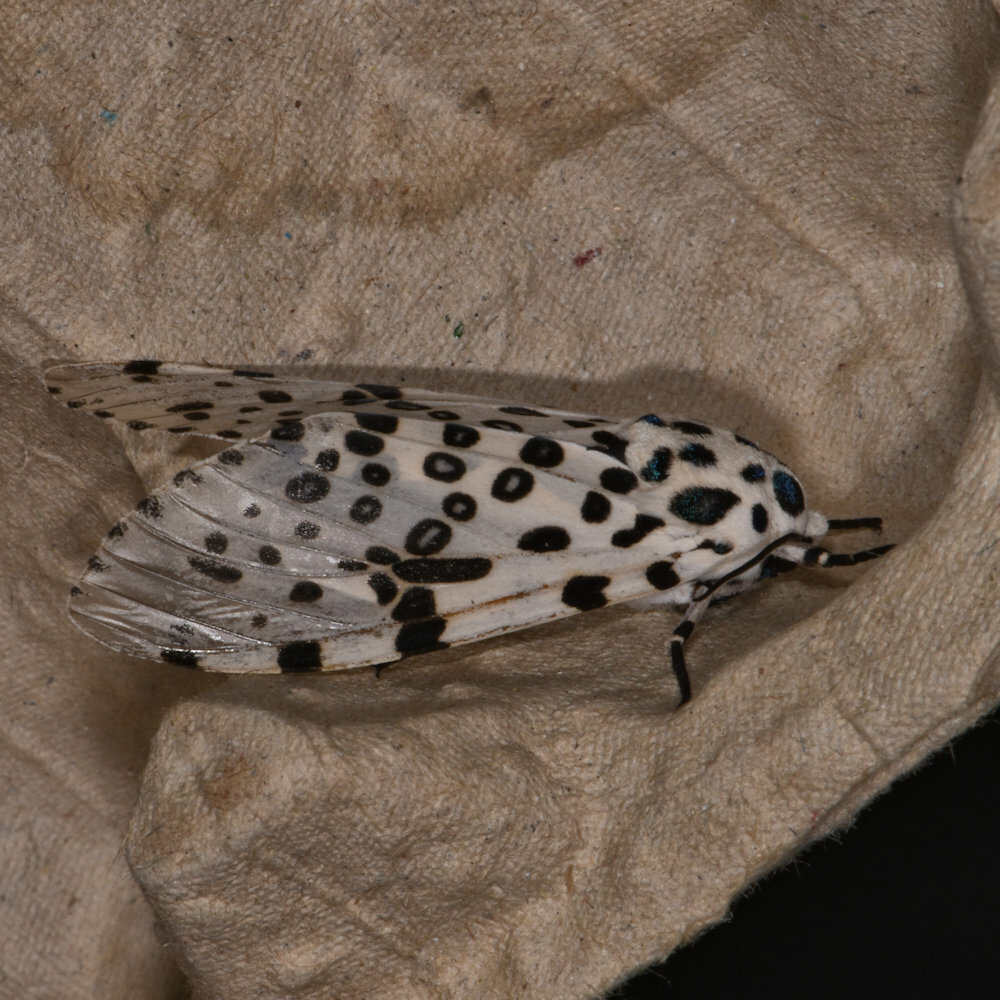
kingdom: Animalia
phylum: Arthropoda
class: Insecta
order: Lepidoptera
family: Erebidae
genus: Hypercompe
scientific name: Hypercompe scribonia
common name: Giant leopard moth
